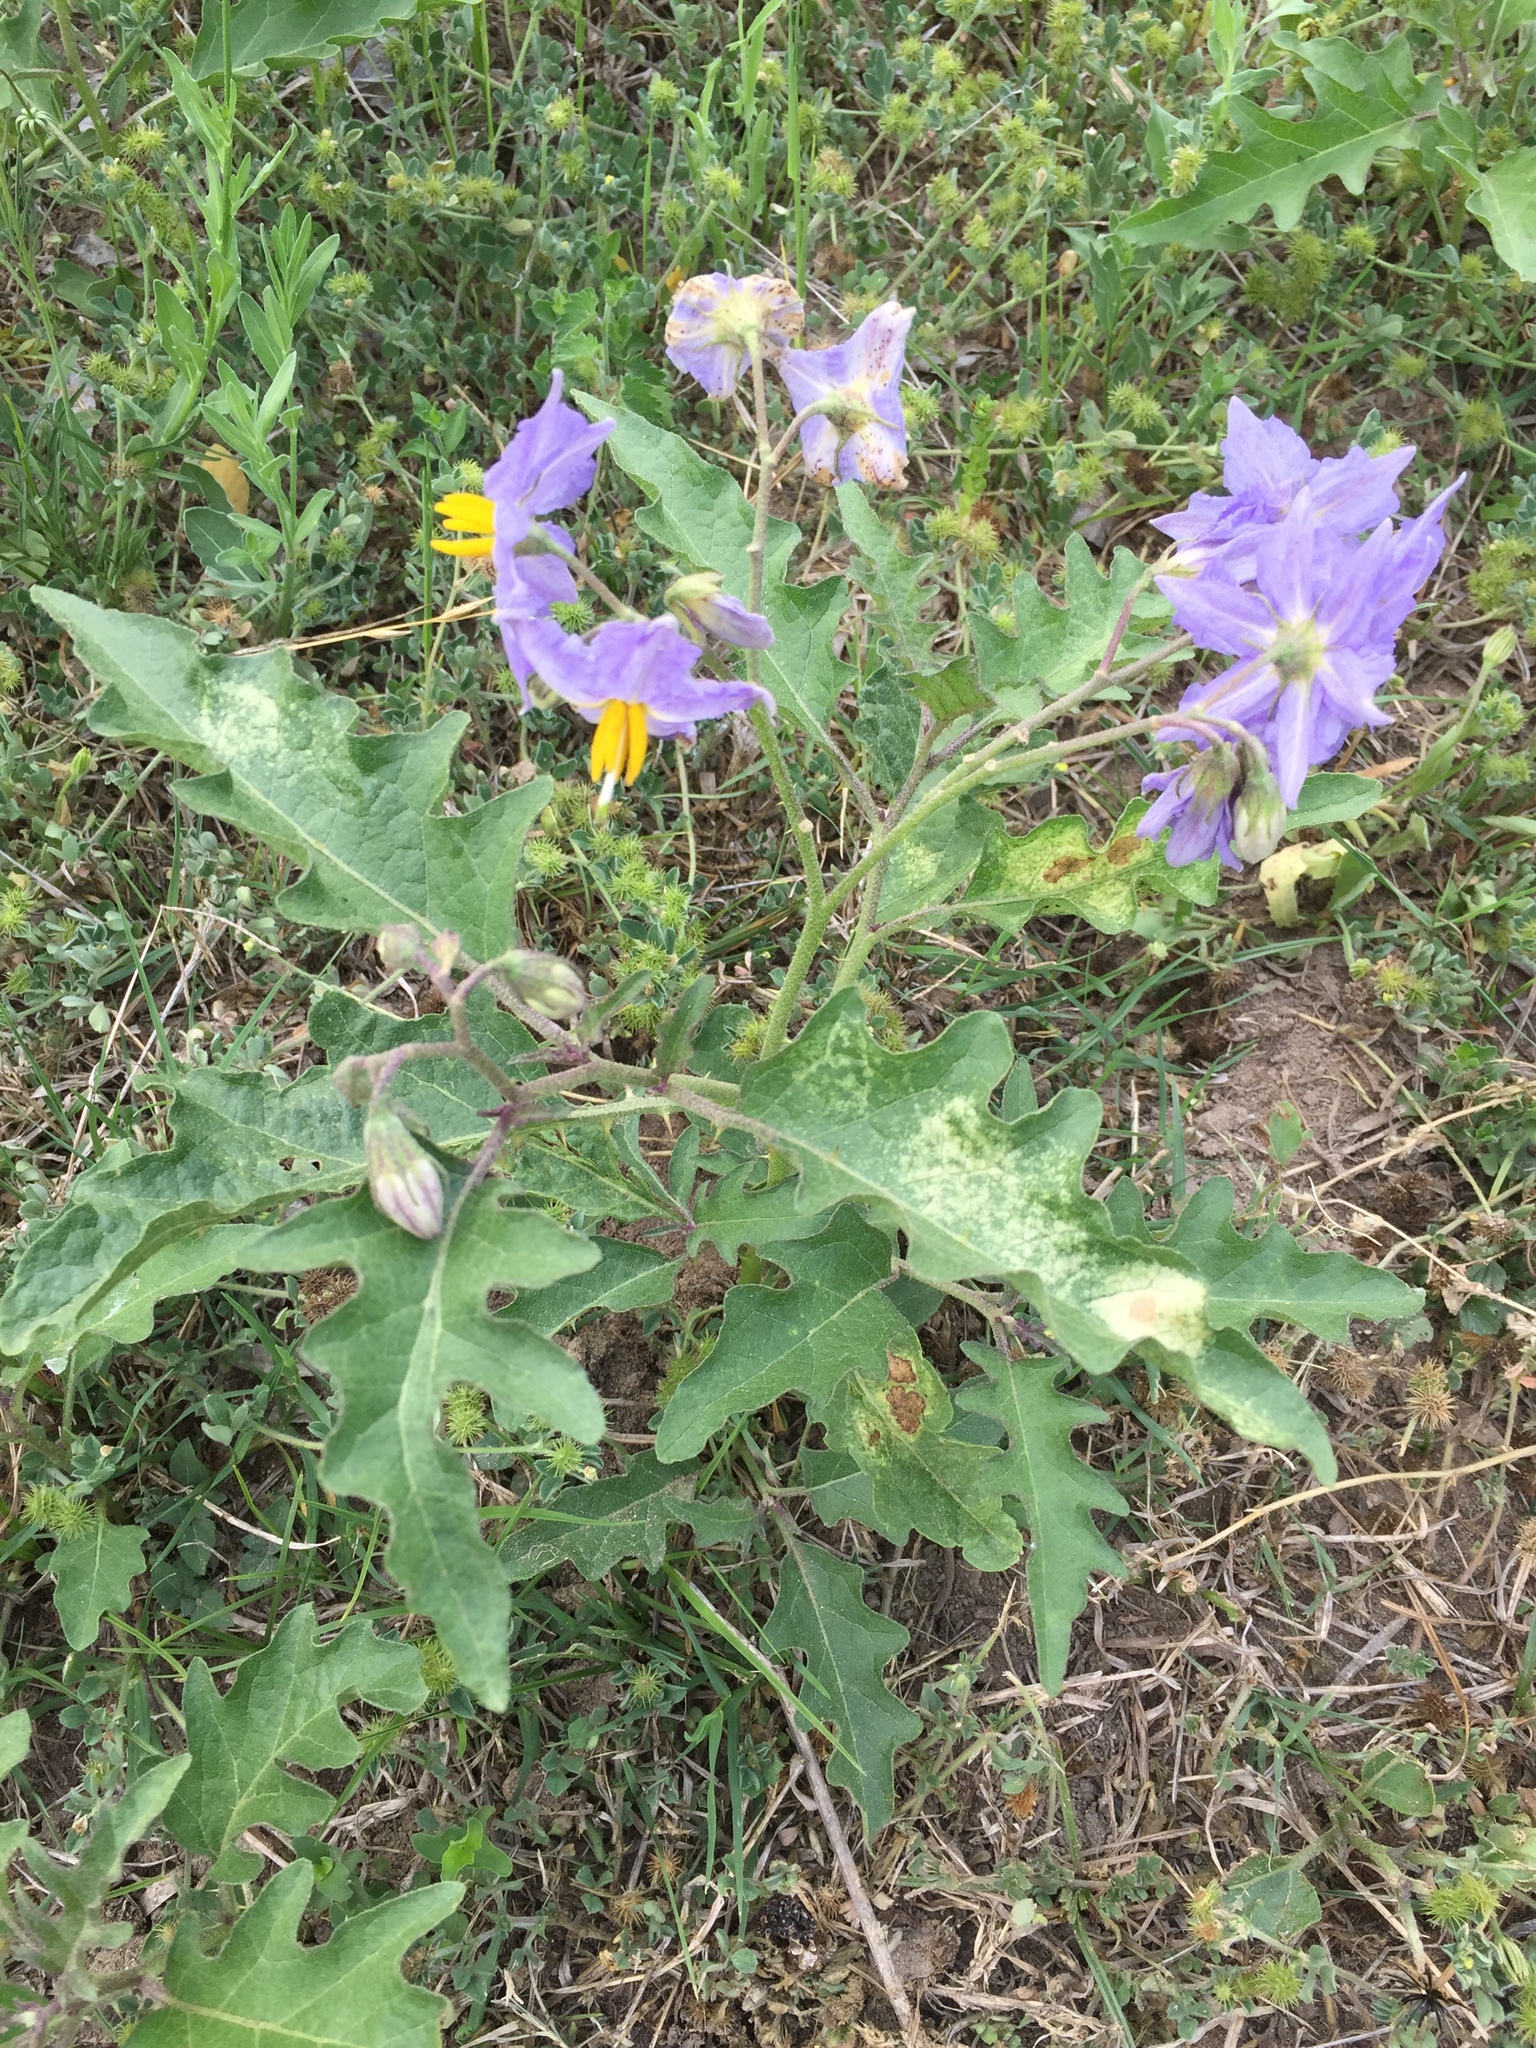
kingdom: Plantae
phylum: Tracheophyta
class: Magnoliopsida
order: Solanales
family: Solanaceae
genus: Solanum
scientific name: Solanum dimidiatum
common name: Carolina horse-nettle
